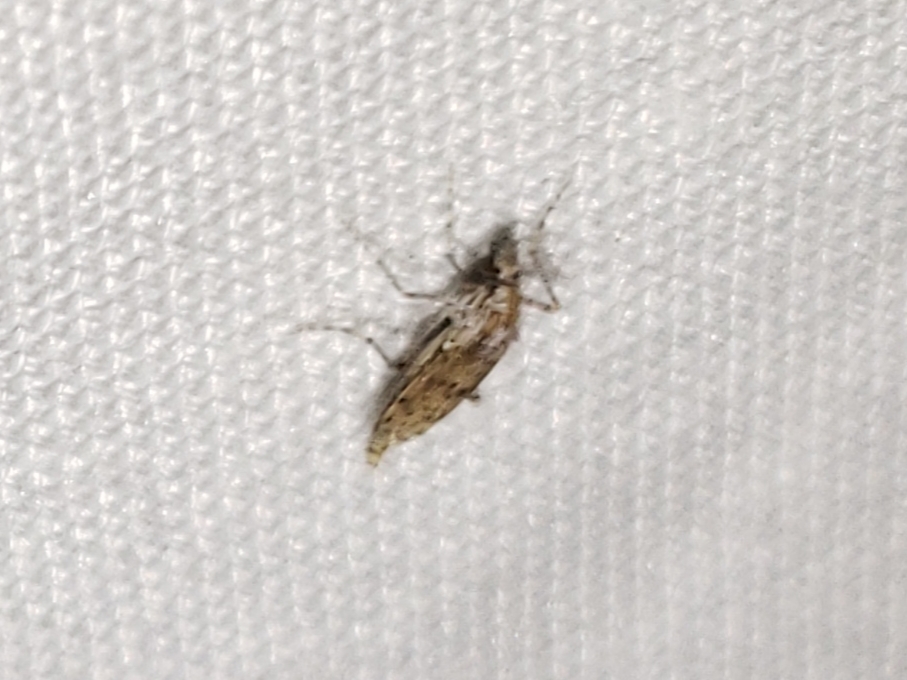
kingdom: Animalia
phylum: Arthropoda
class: Insecta
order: Diptera
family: Chaoboridae
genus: Chaoborus
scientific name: Chaoborus punctipennis
